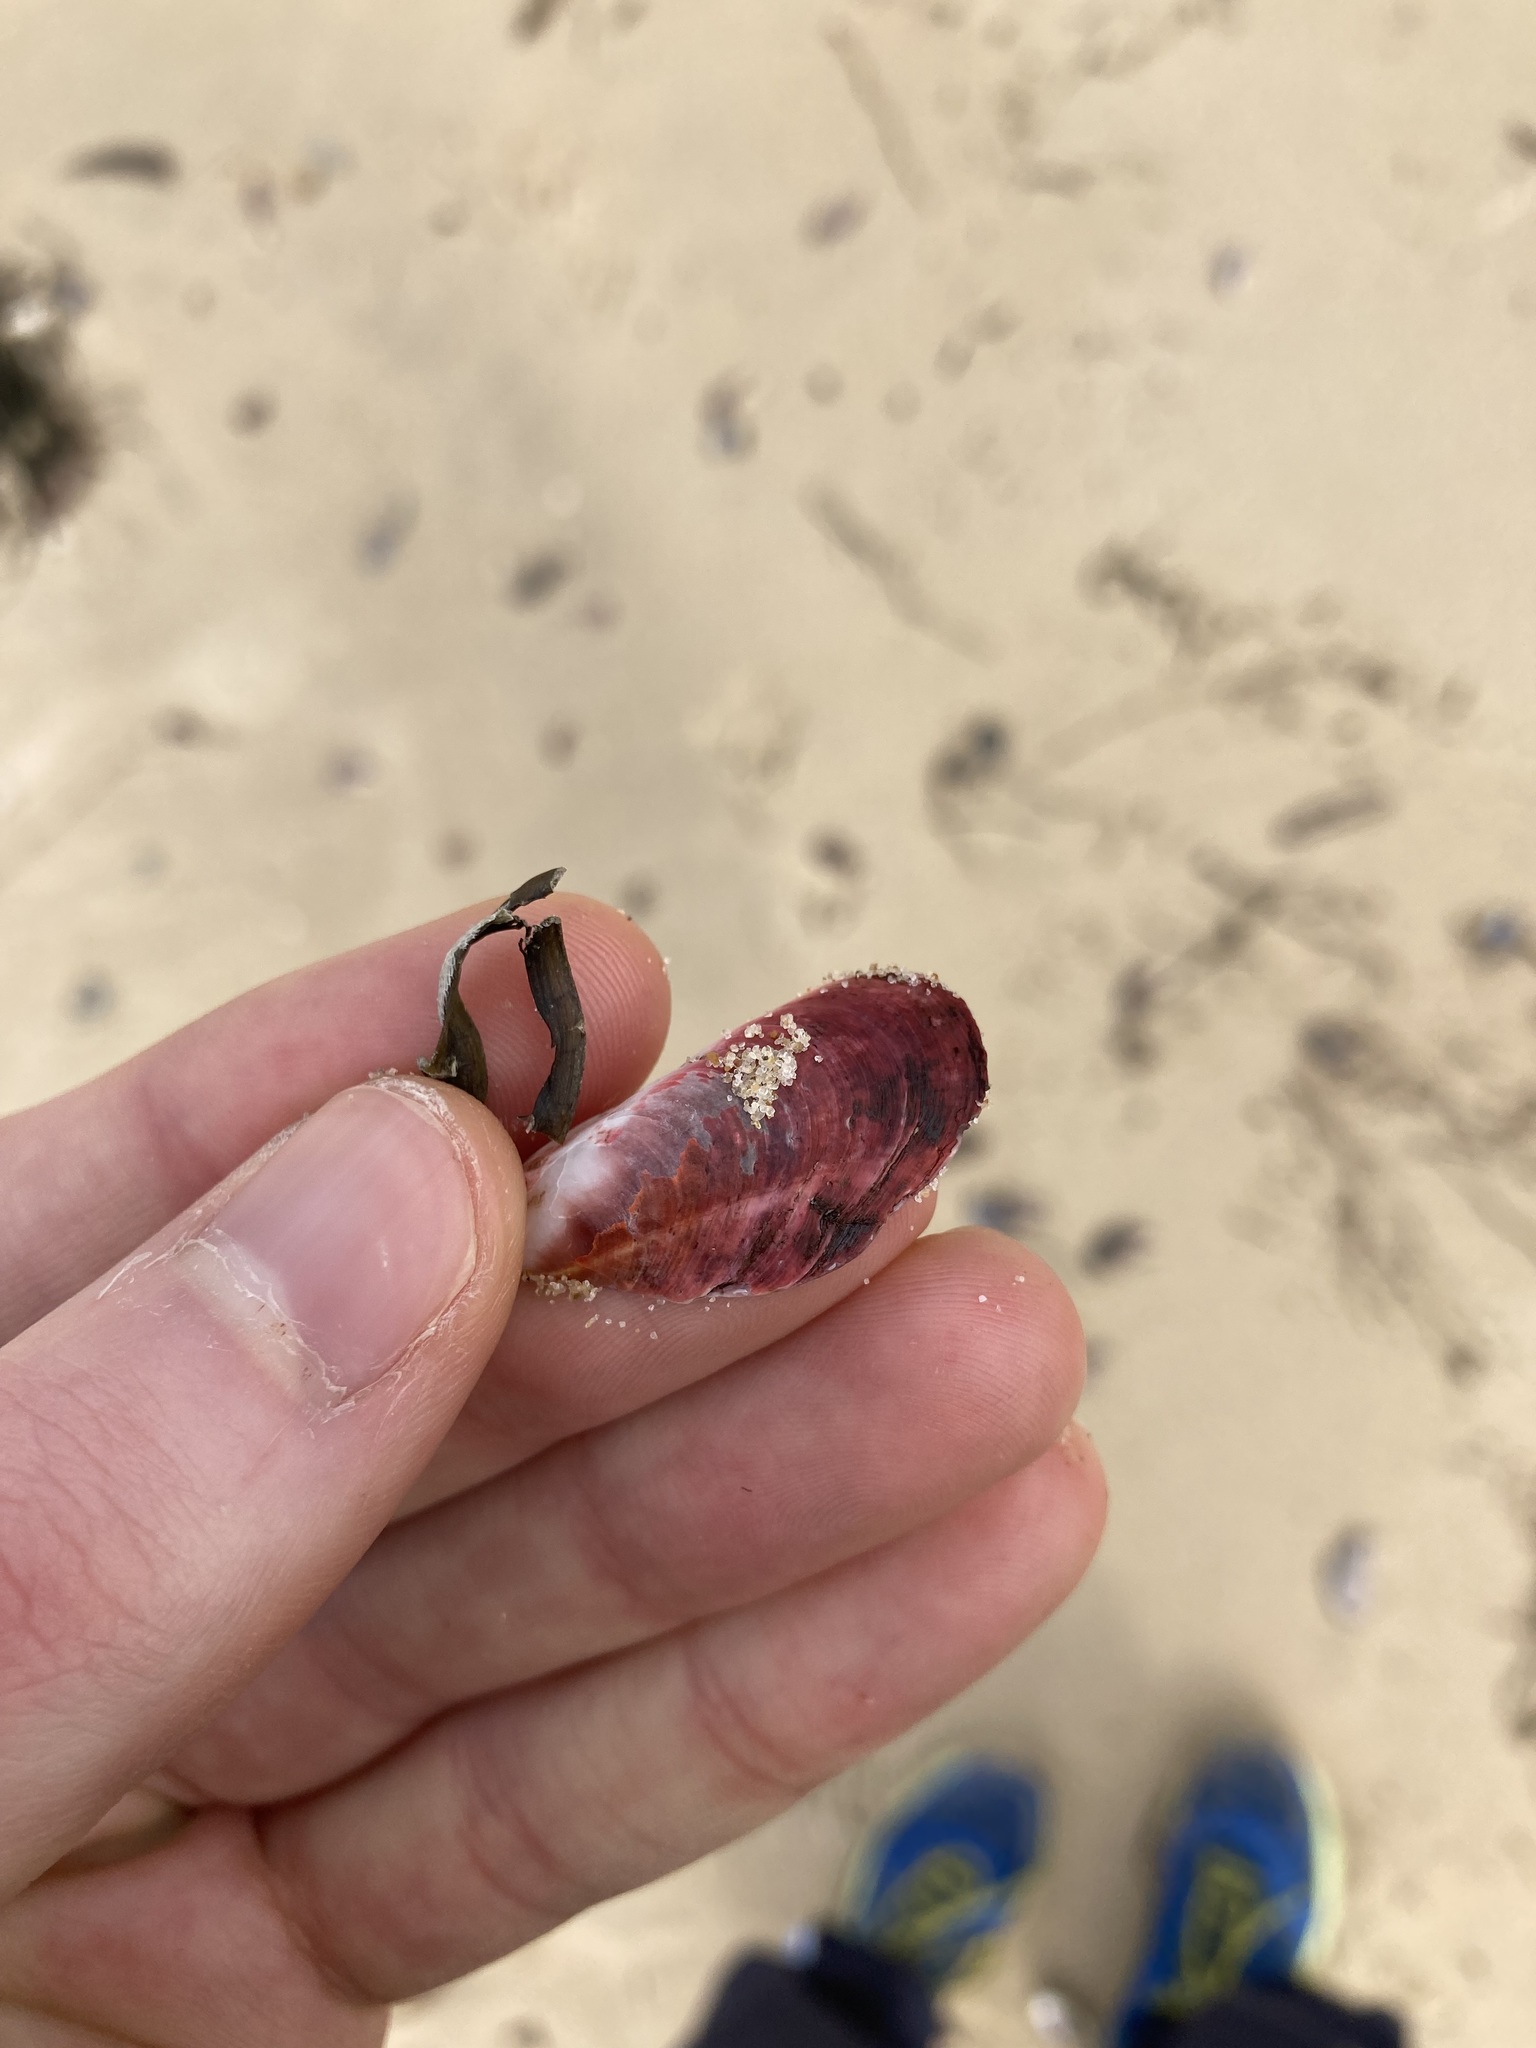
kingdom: Animalia
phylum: Mollusca
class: Bivalvia
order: Mytilida
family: Mytilidae
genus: Modiolus
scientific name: Modiolus areolatus
